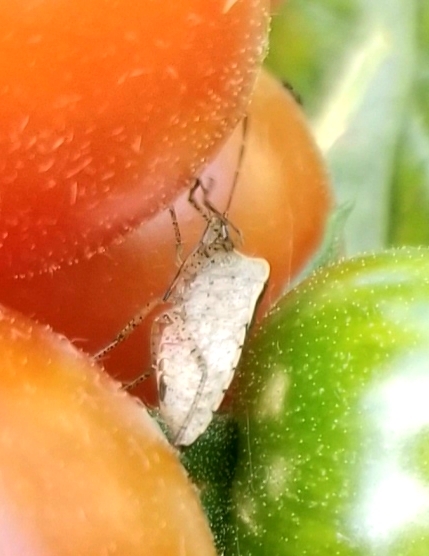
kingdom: Animalia
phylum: Arthropoda
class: Insecta
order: Hemiptera
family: Pentatomidae
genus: Euschistus
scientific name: Euschistus tristigmus
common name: Dusky stink bug
